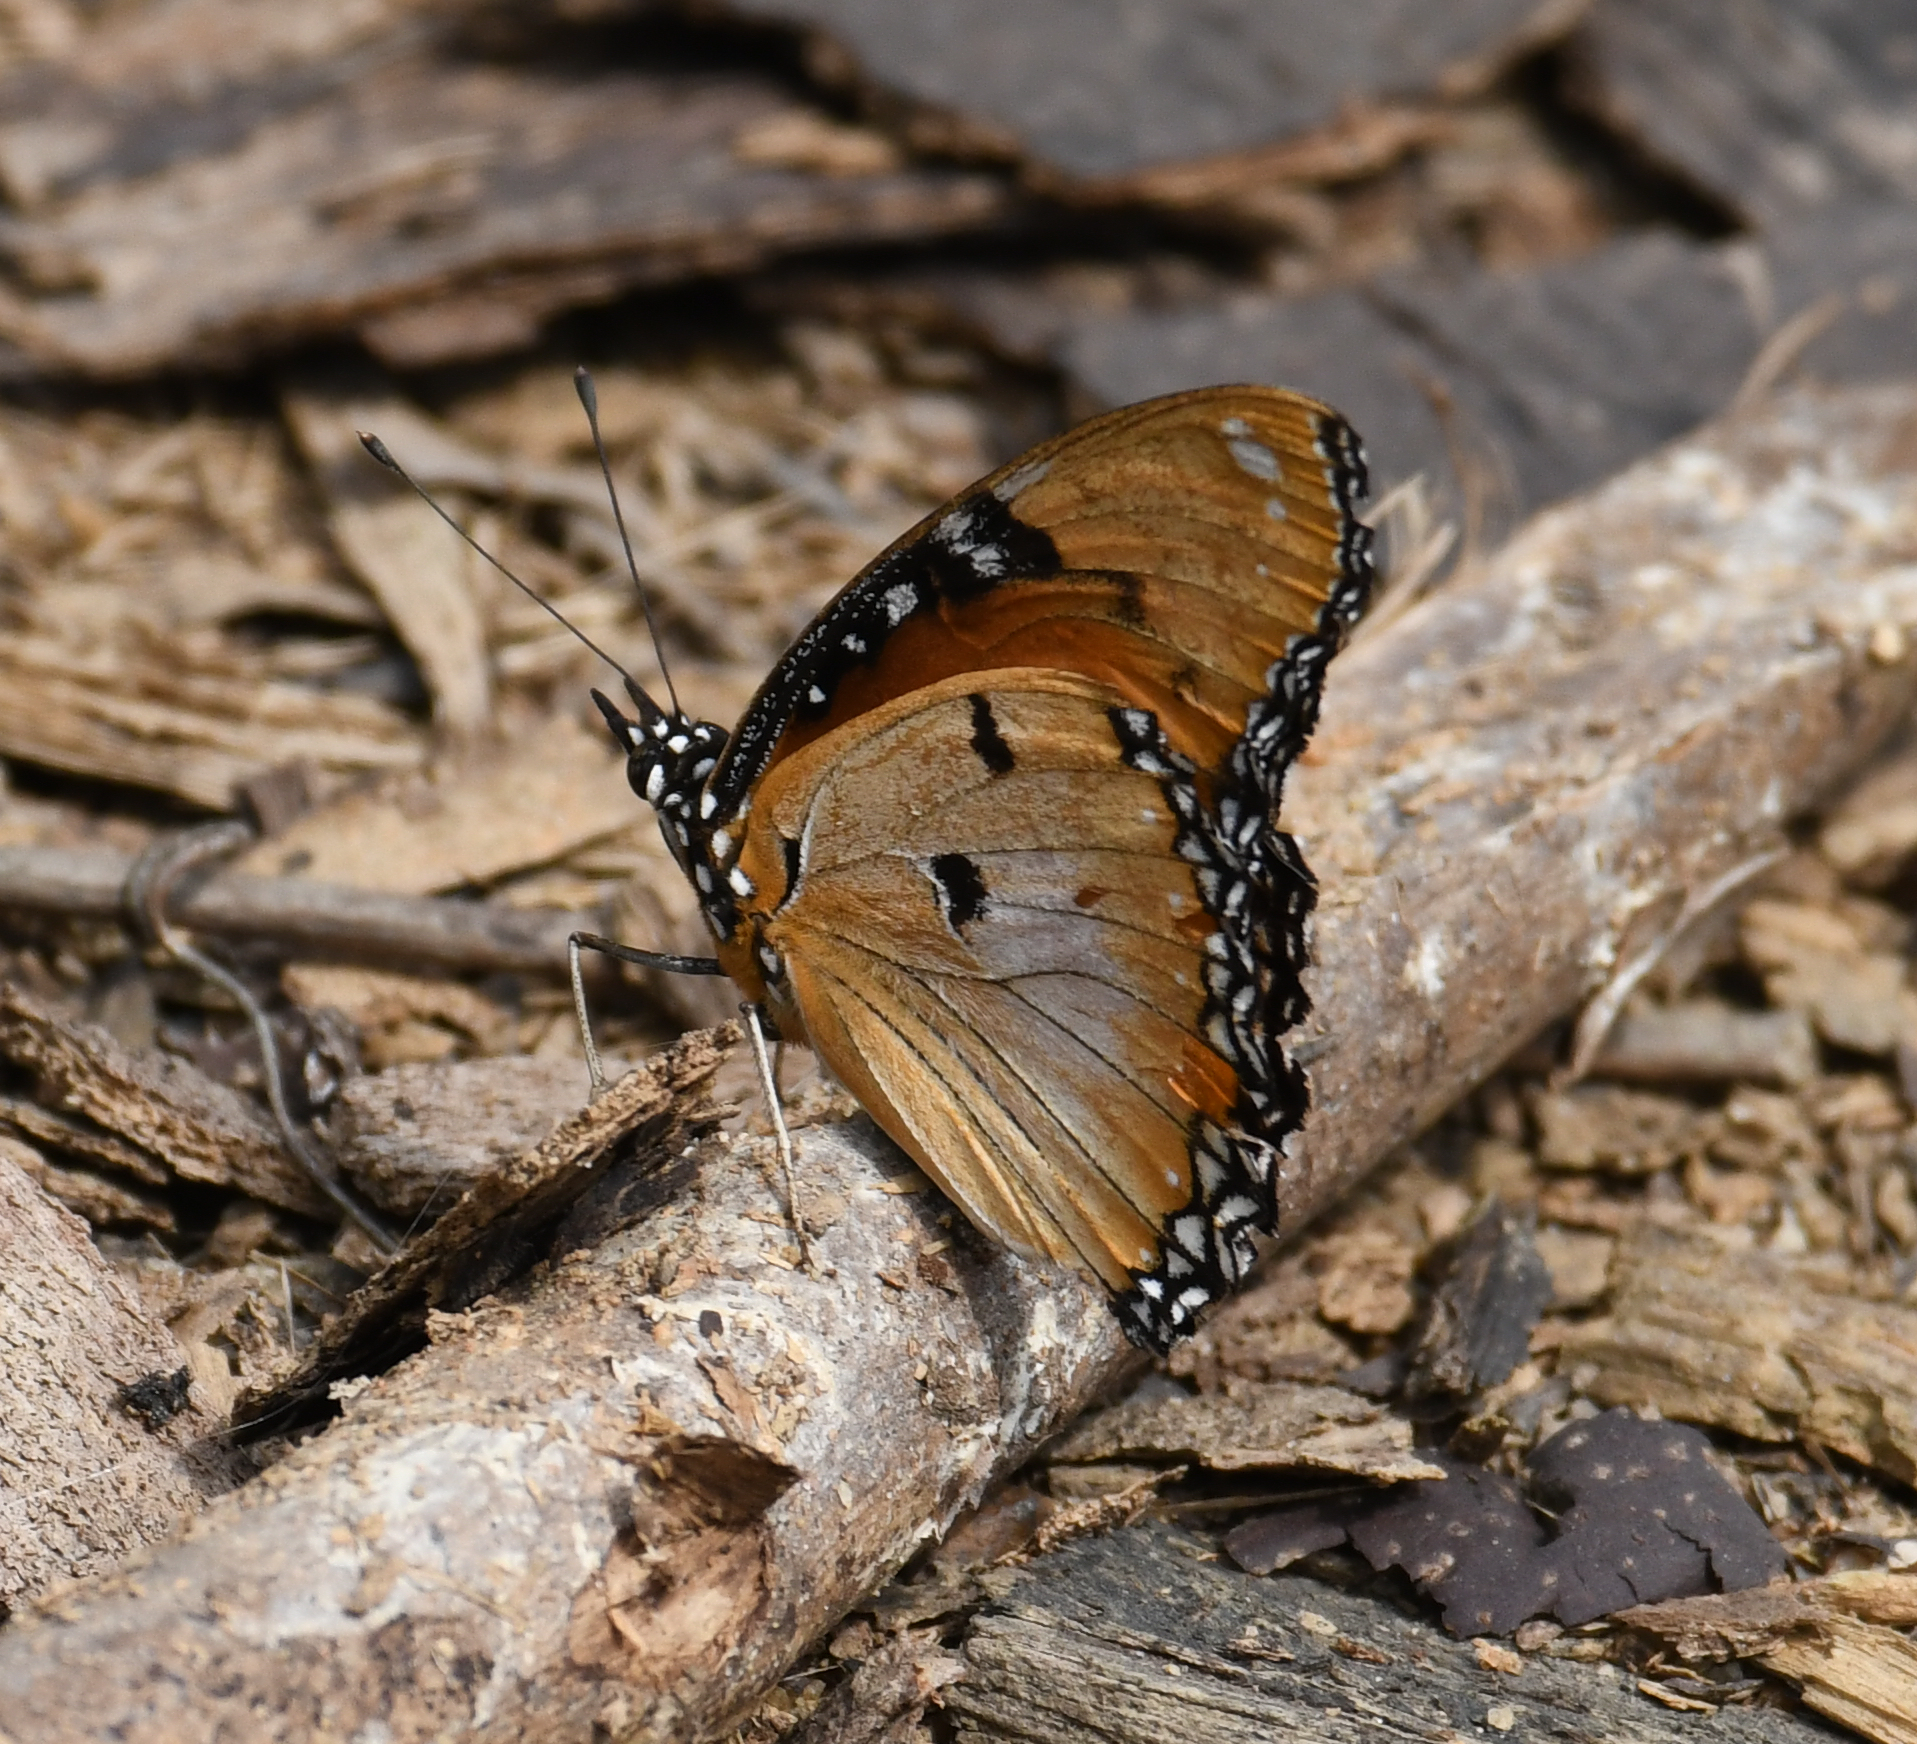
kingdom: Animalia
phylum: Arthropoda
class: Insecta
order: Lepidoptera
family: Nymphalidae
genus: Hypolimnas
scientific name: Hypolimnas misippus
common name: False plain tiger
